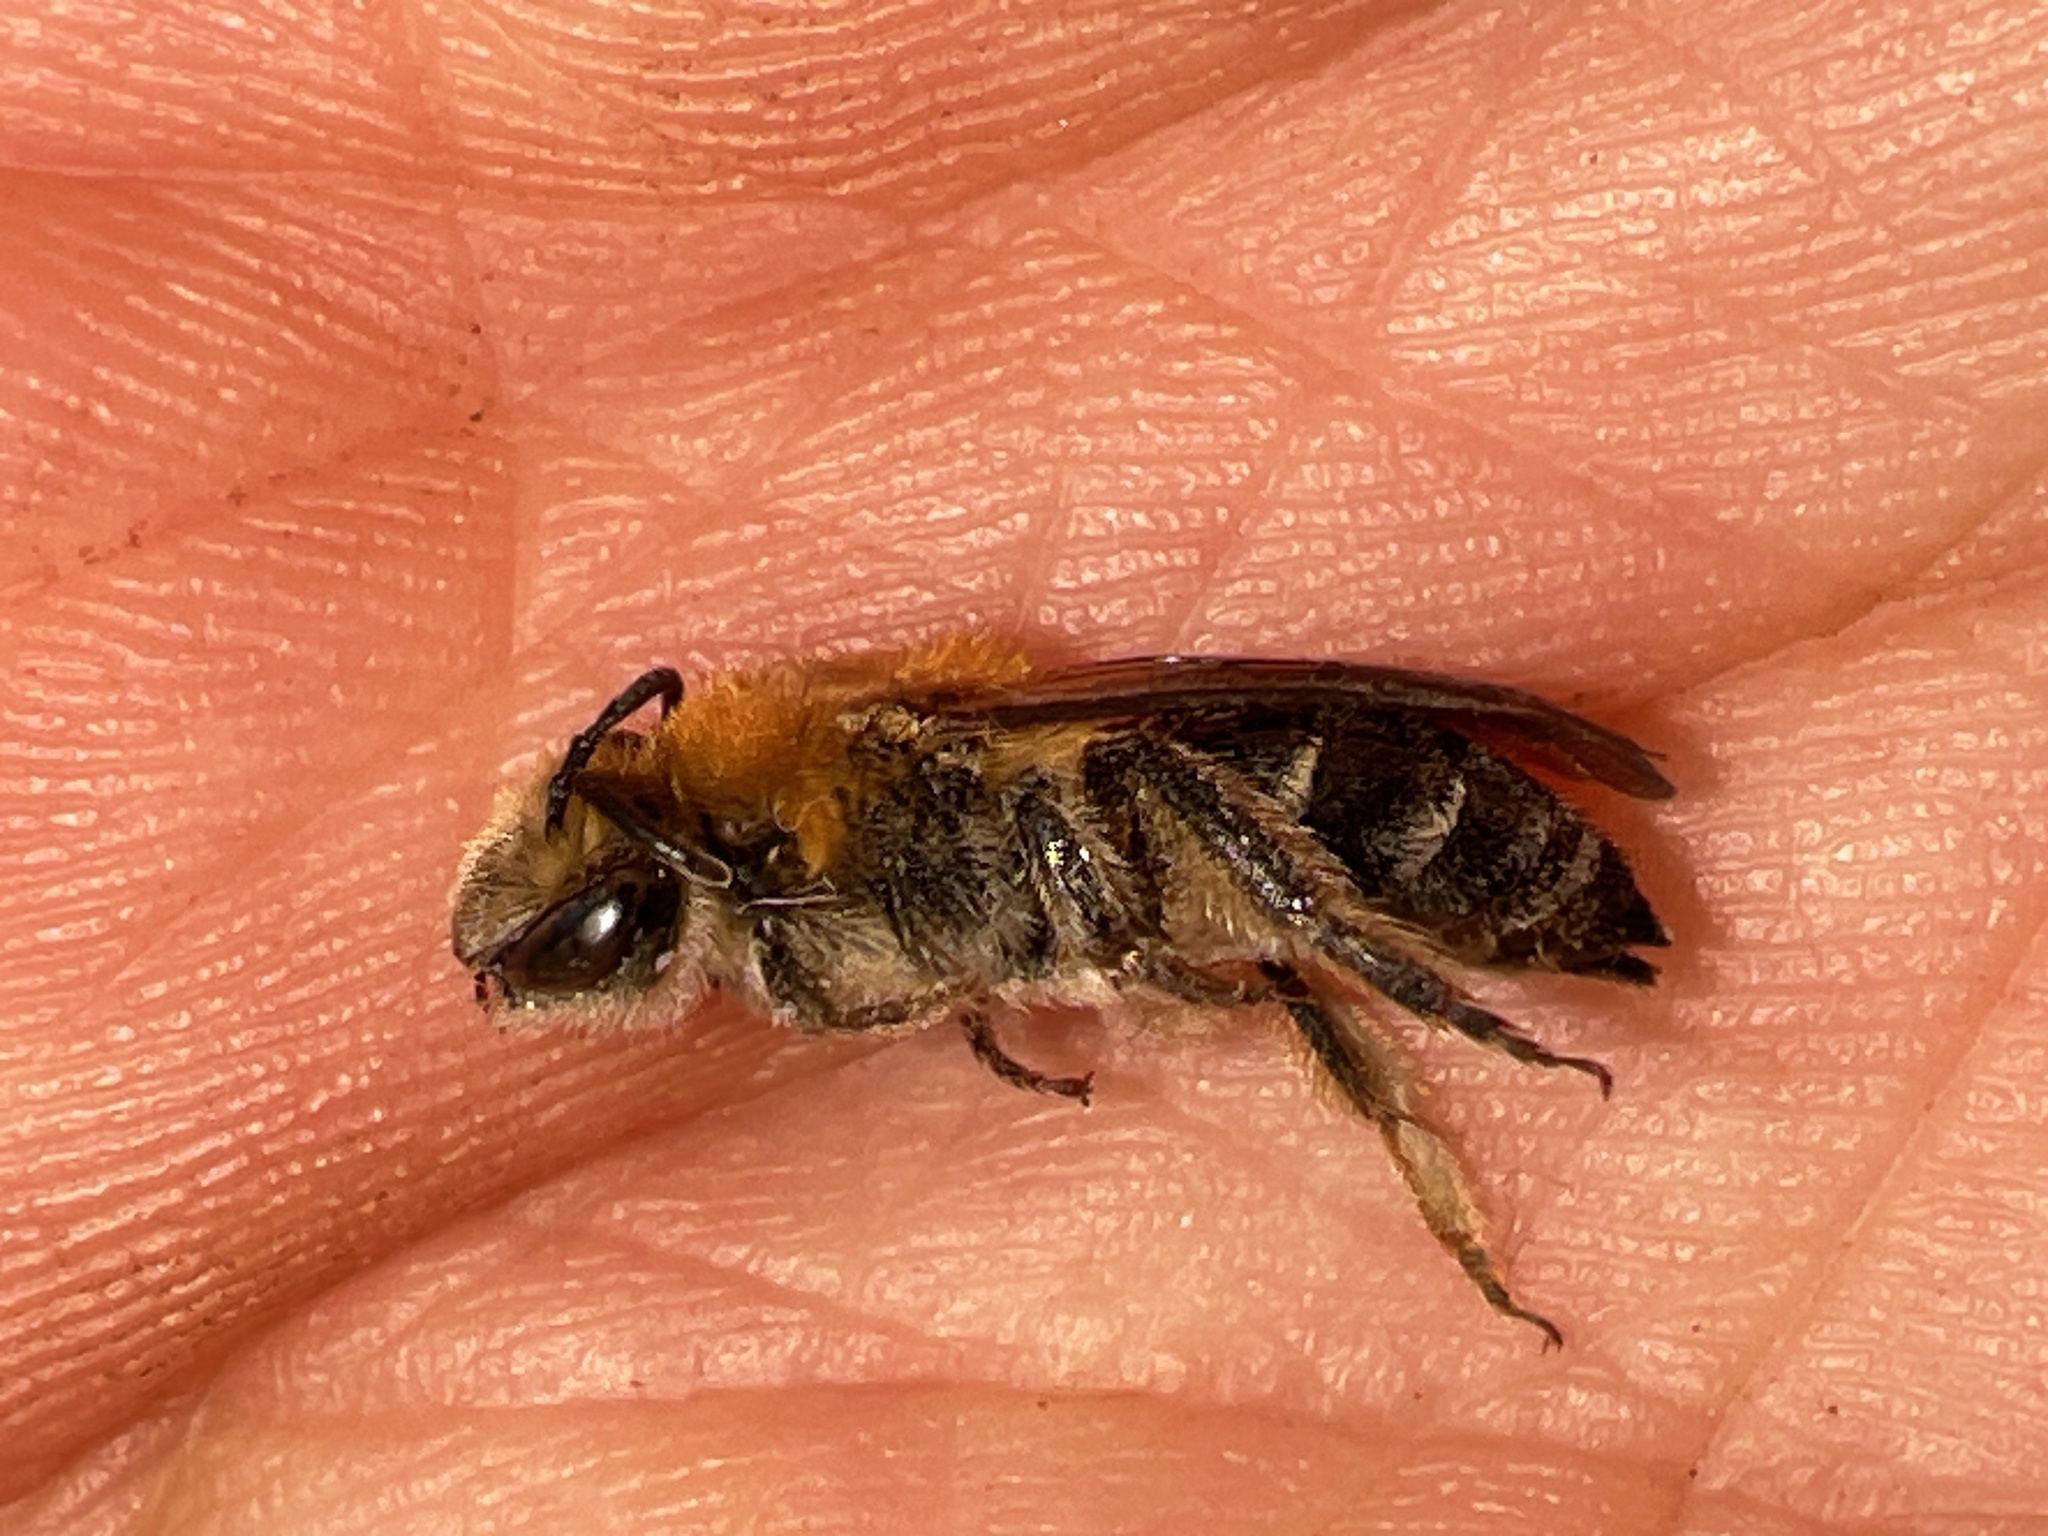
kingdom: Animalia
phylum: Arthropoda
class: Insecta
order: Hymenoptera
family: Colletidae
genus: Colletes
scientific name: Colletes thoracicus
